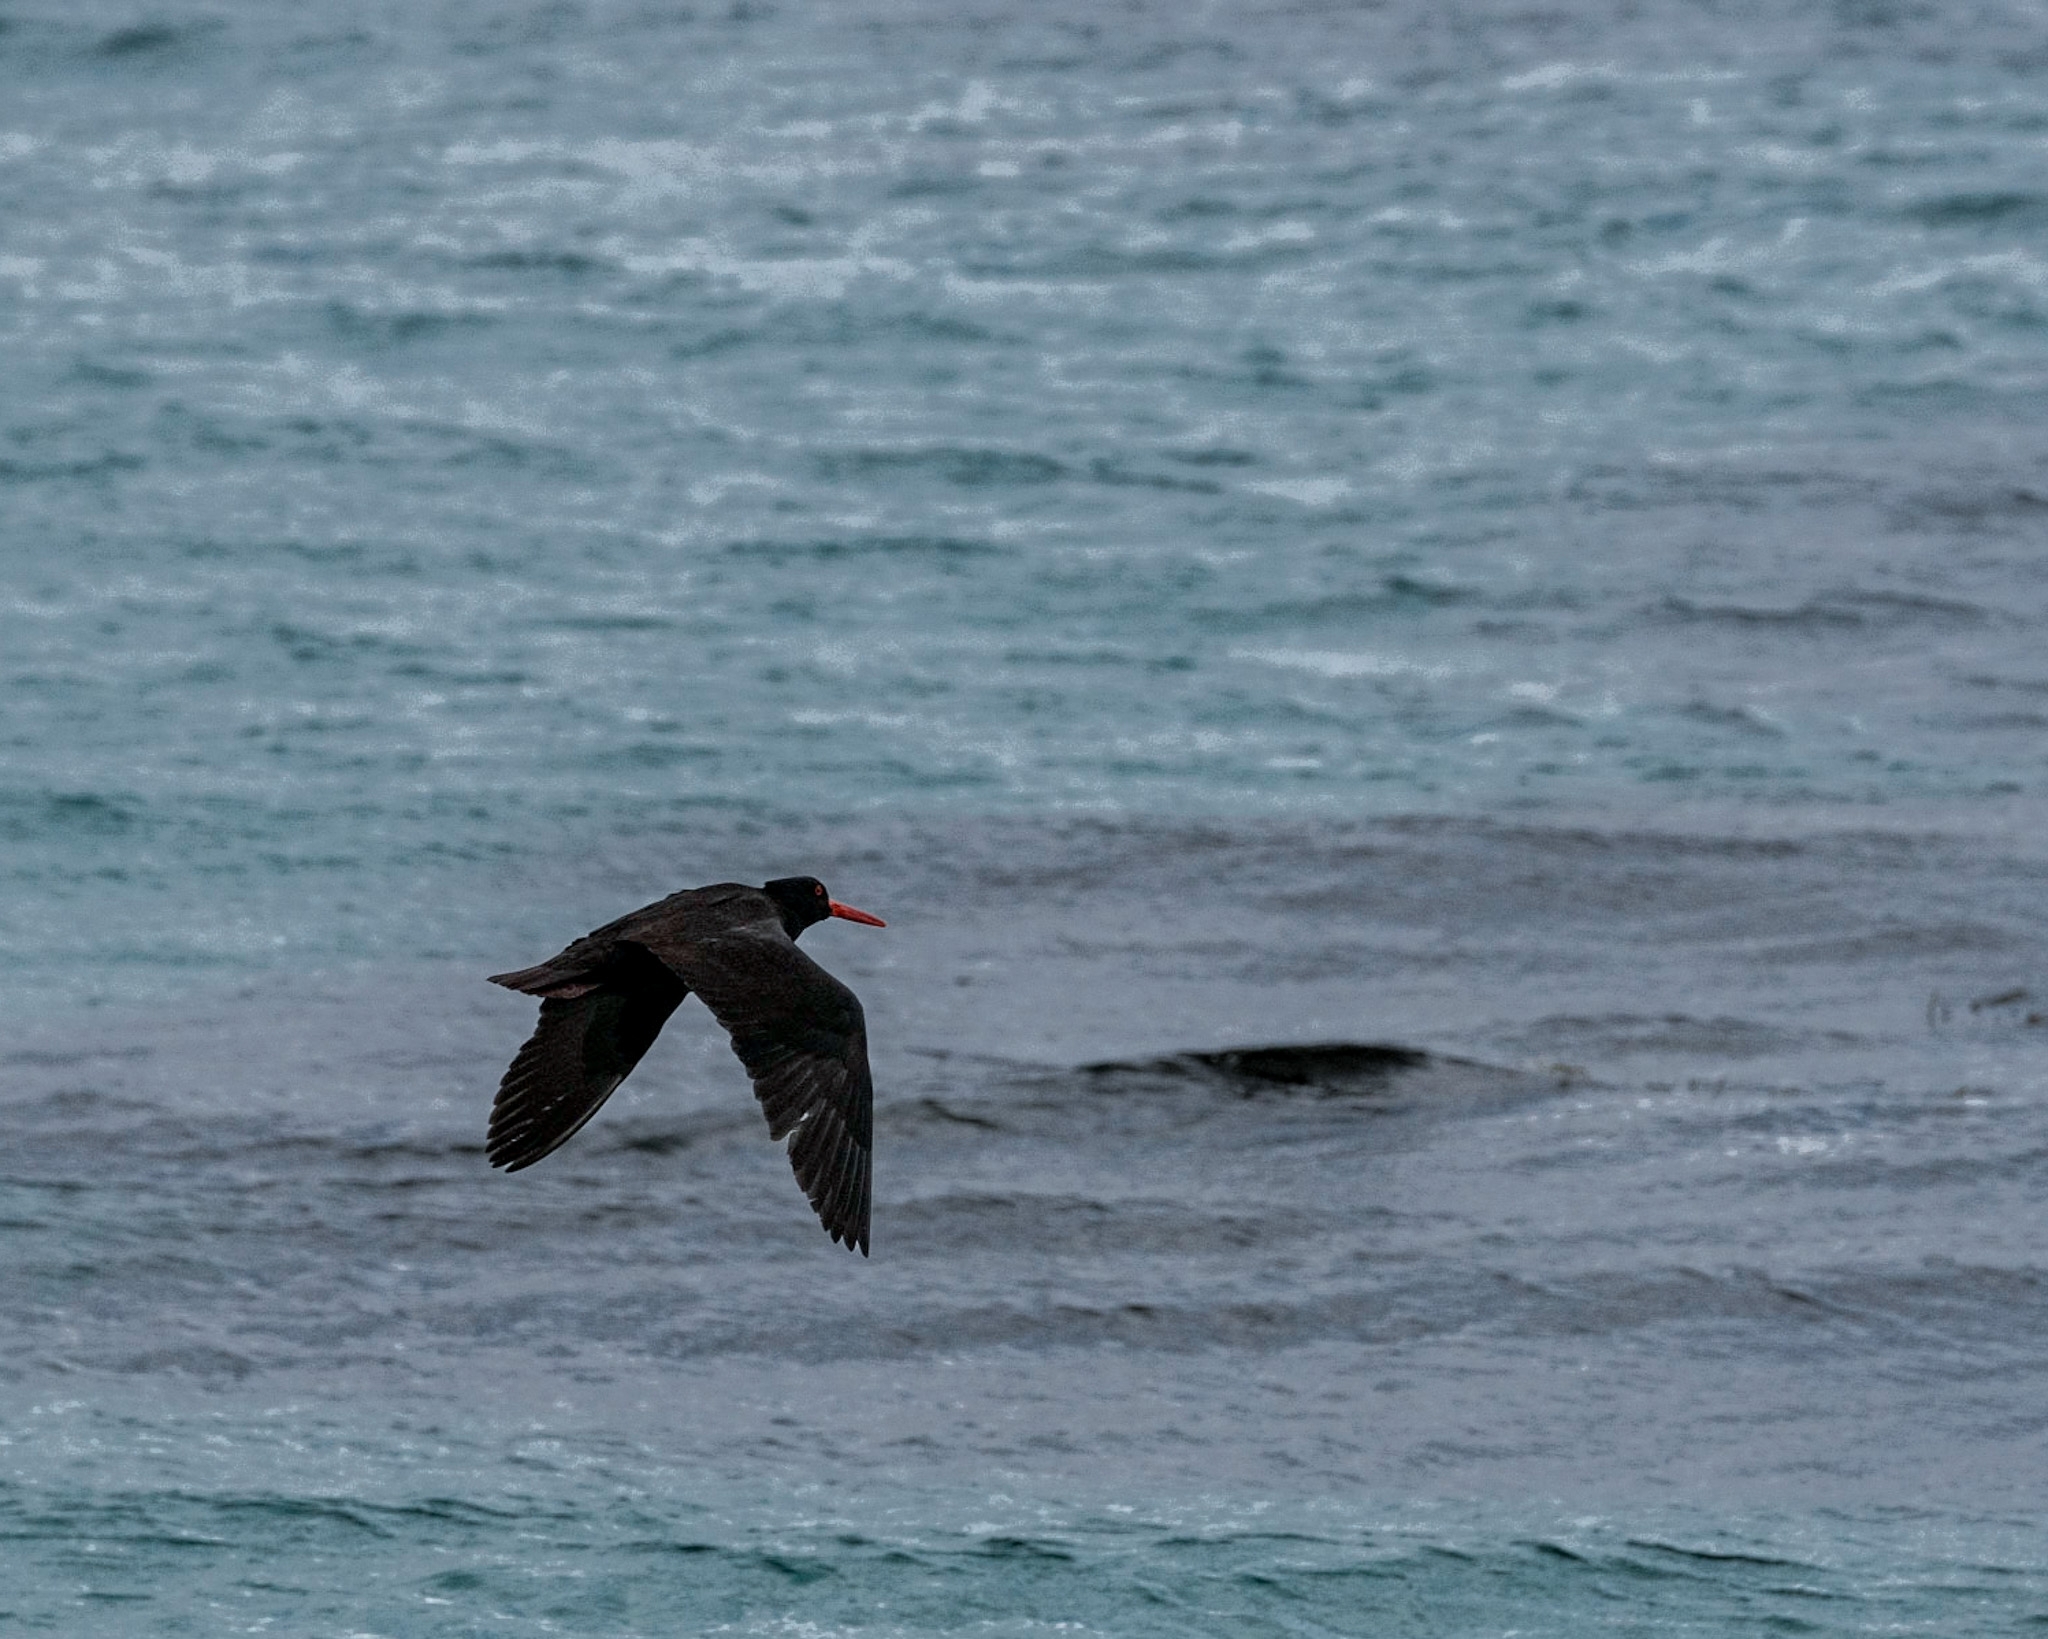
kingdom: Animalia
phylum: Chordata
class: Aves
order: Charadriiformes
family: Haematopodidae
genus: Haematopus
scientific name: Haematopus fuliginosus
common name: Sooty oystercatcher
